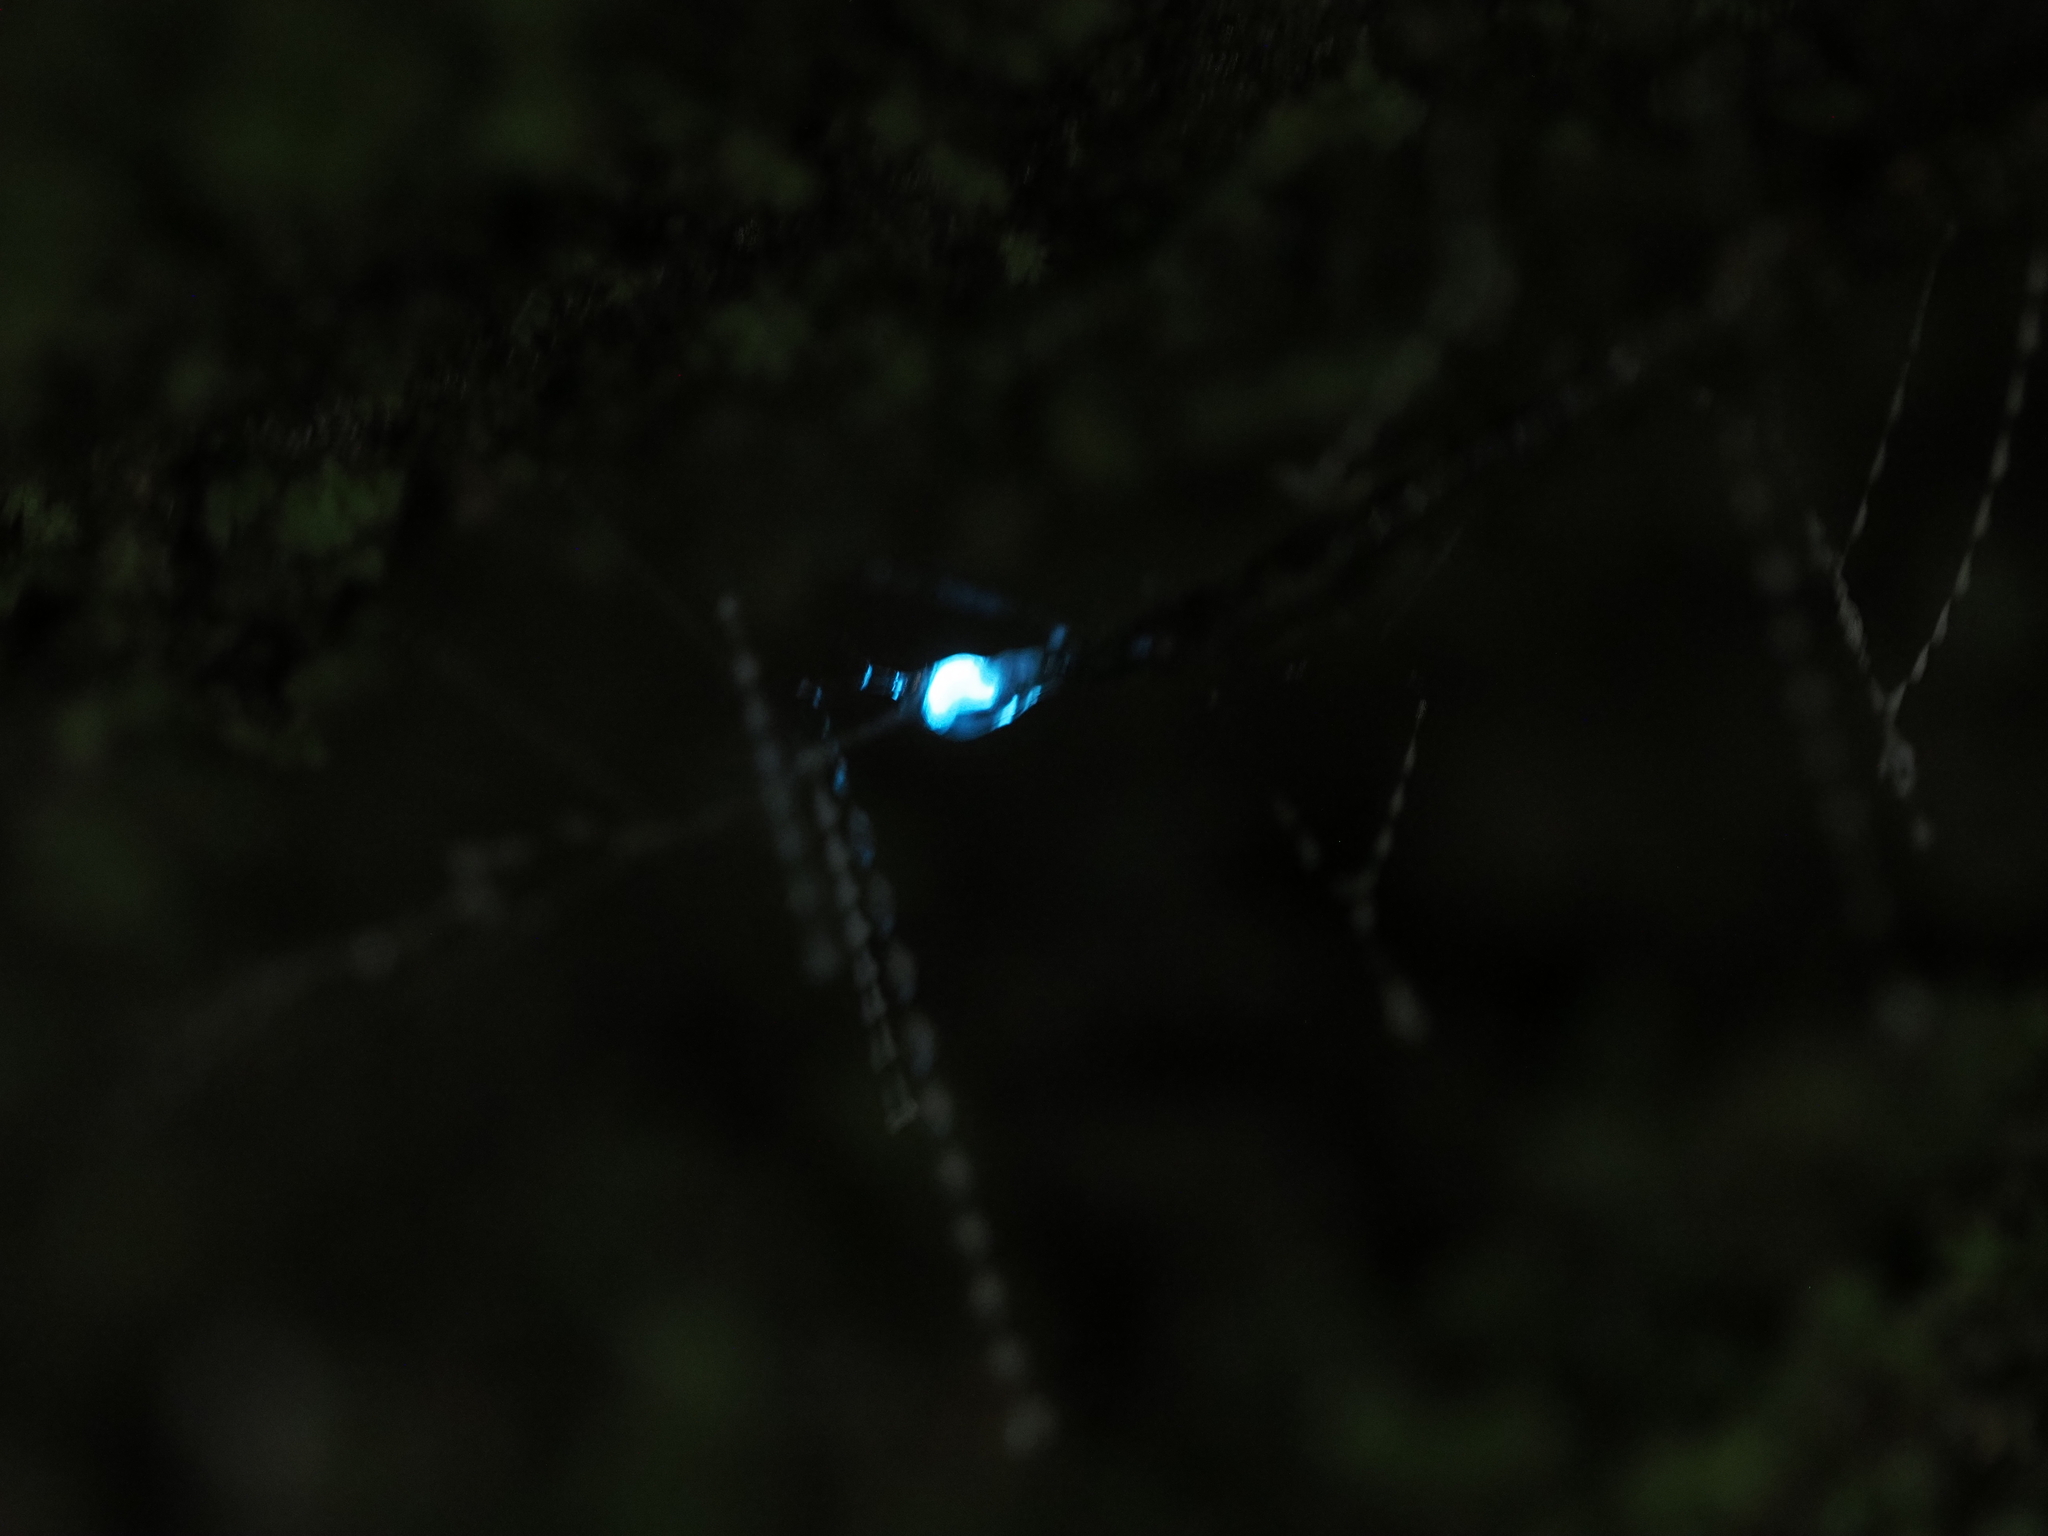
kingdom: Animalia
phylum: Arthropoda
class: Insecta
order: Diptera
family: Keroplatidae
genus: Arachnocampa
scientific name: Arachnocampa luminosa
